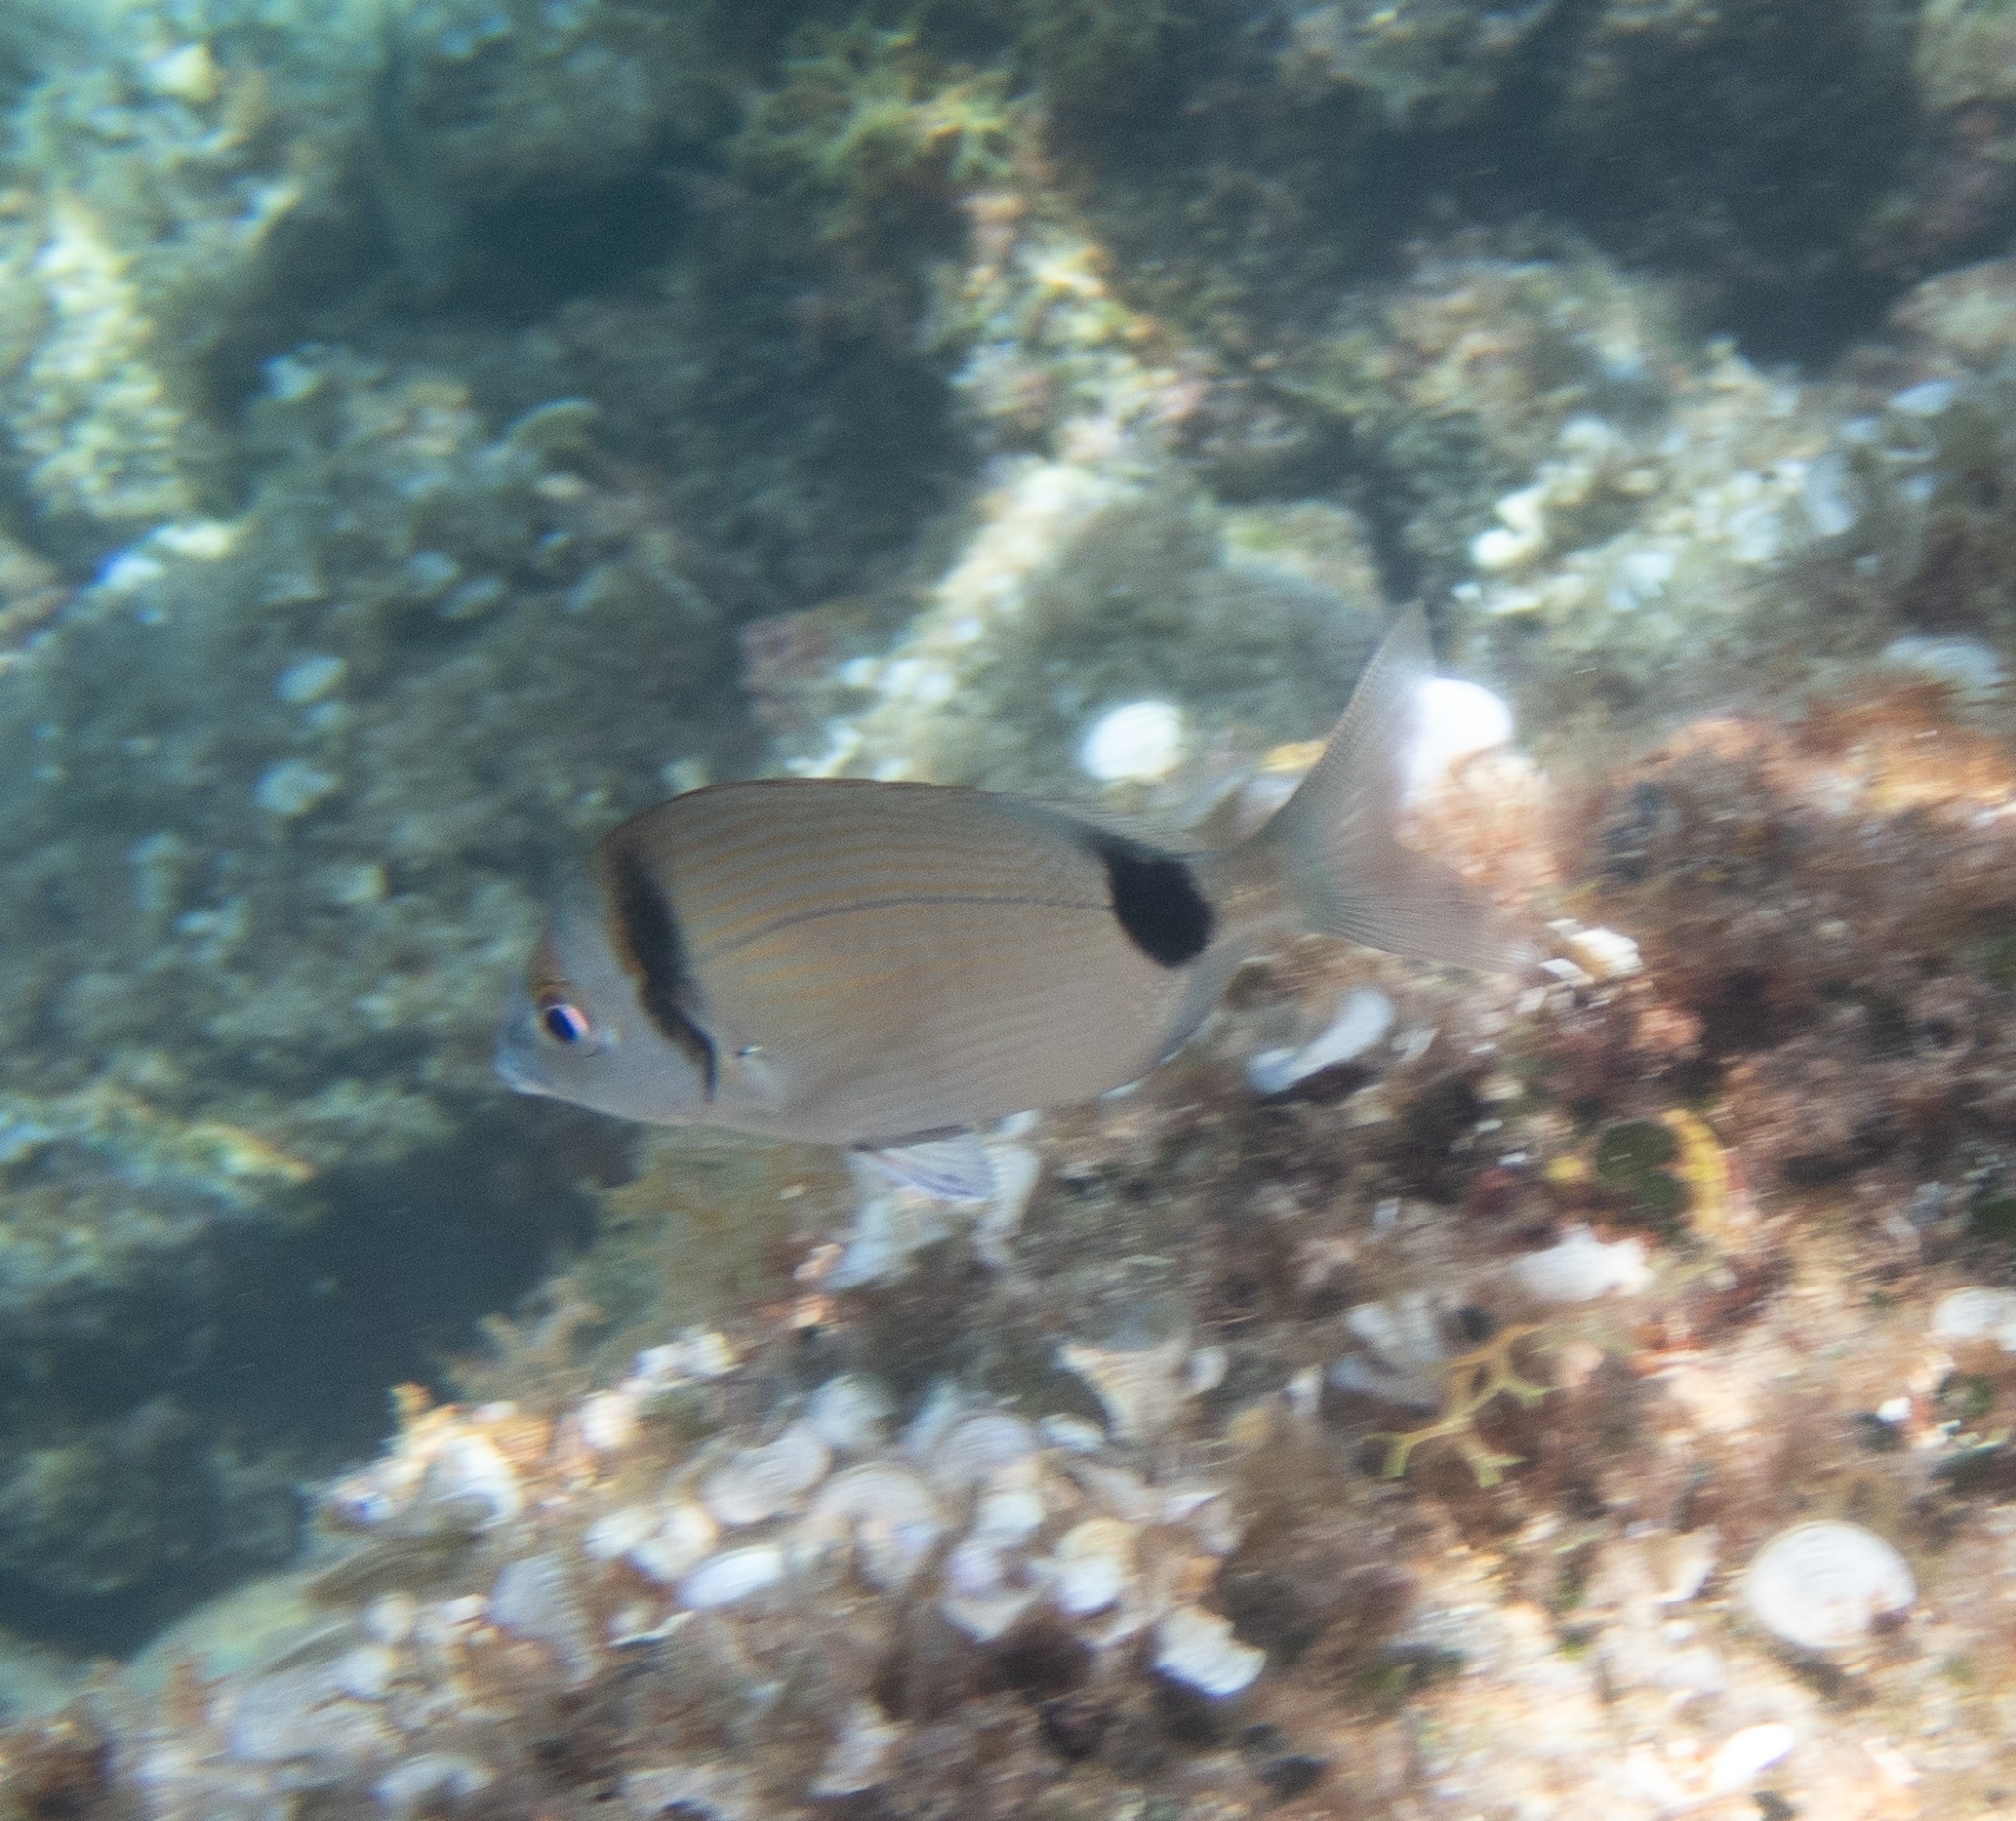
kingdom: Animalia
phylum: Chordata
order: Perciformes
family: Sparidae
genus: Diplodus
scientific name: Diplodus vulgaris
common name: Common two-banded seabream
